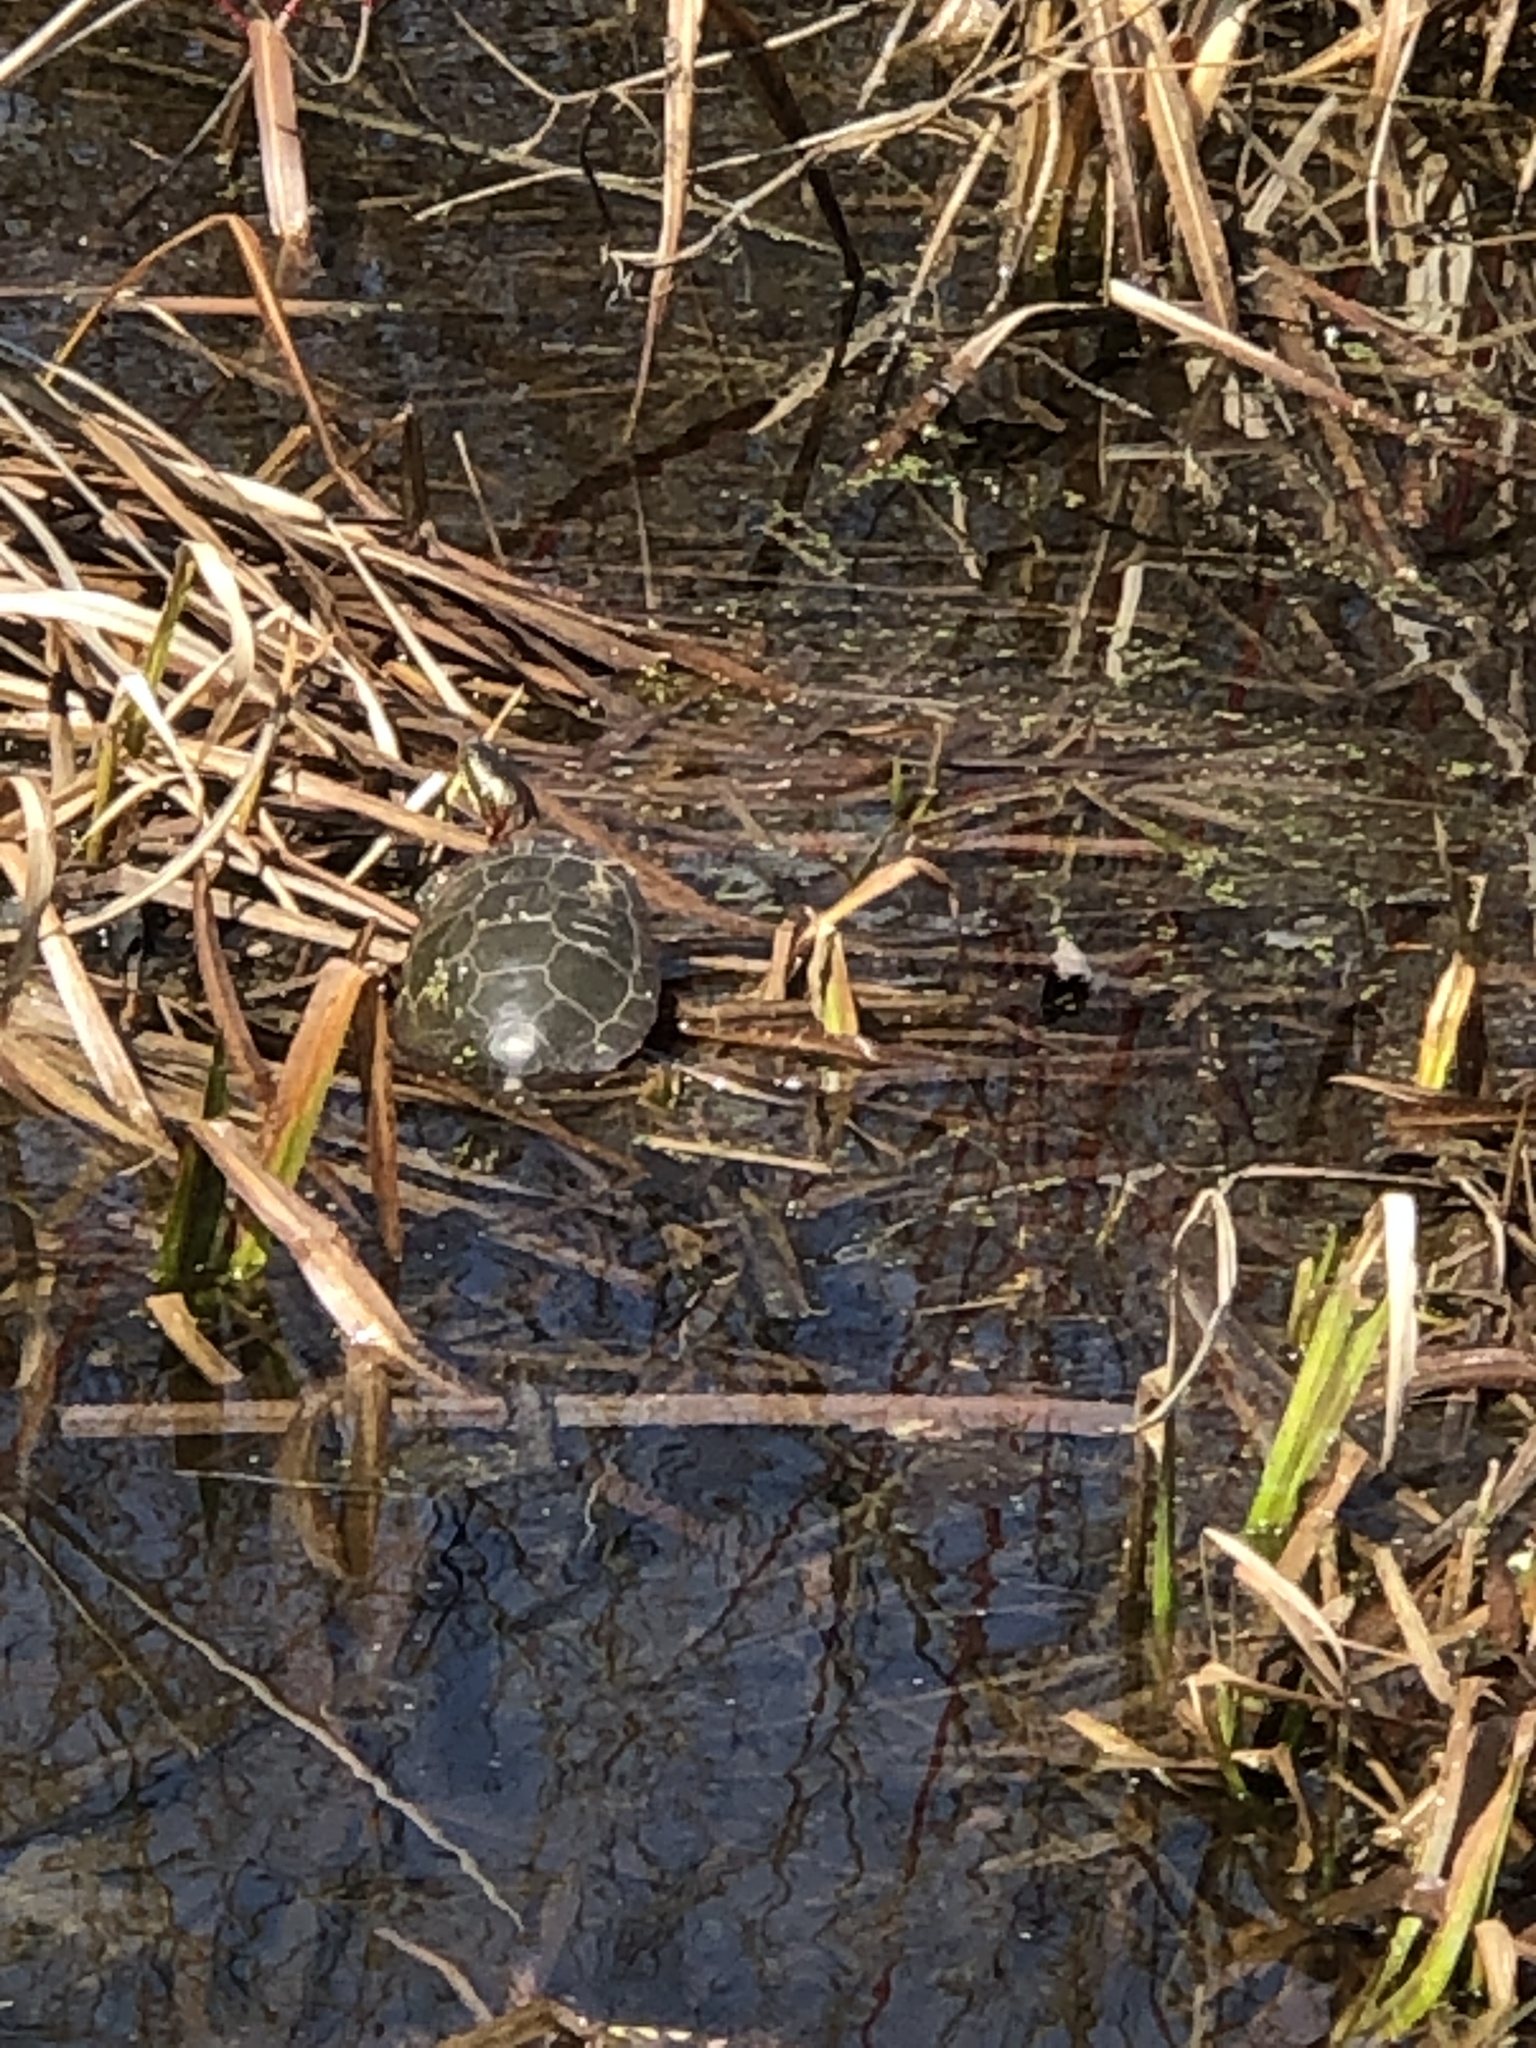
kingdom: Animalia
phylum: Chordata
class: Testudines
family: Emydidae
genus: Chrysemys
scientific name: Chrysemys picta
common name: Painted turtle
